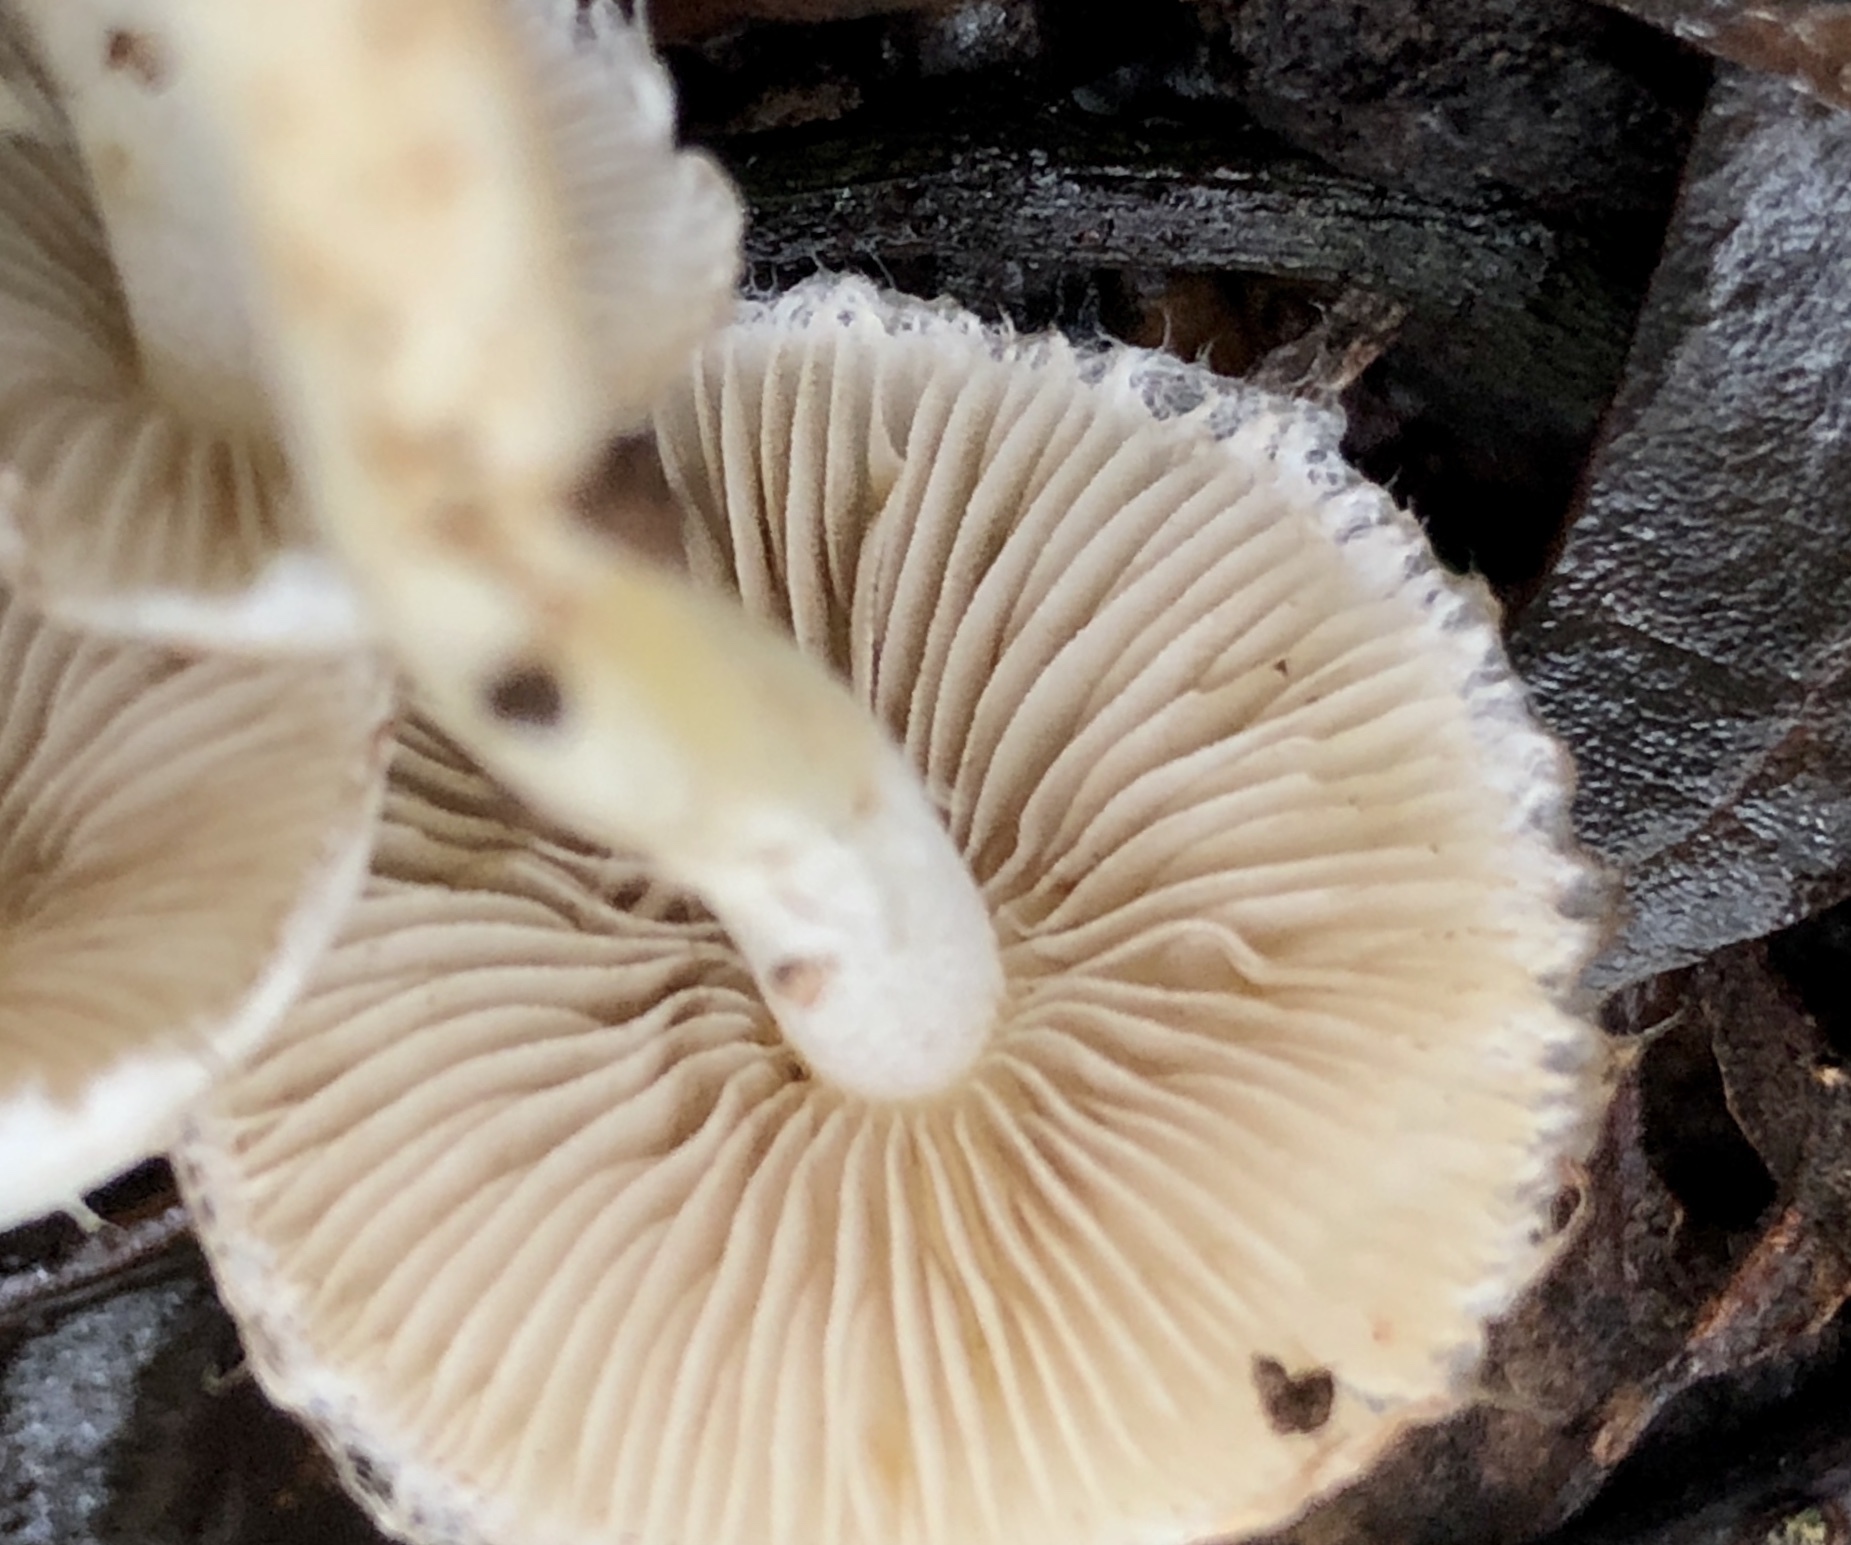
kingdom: Fungi
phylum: Basidiomycota
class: Agaricomycetes
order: Agaricales
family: Inocybaceae
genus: Inocybe
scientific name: Inocybe geophylla
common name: White fibrecap
